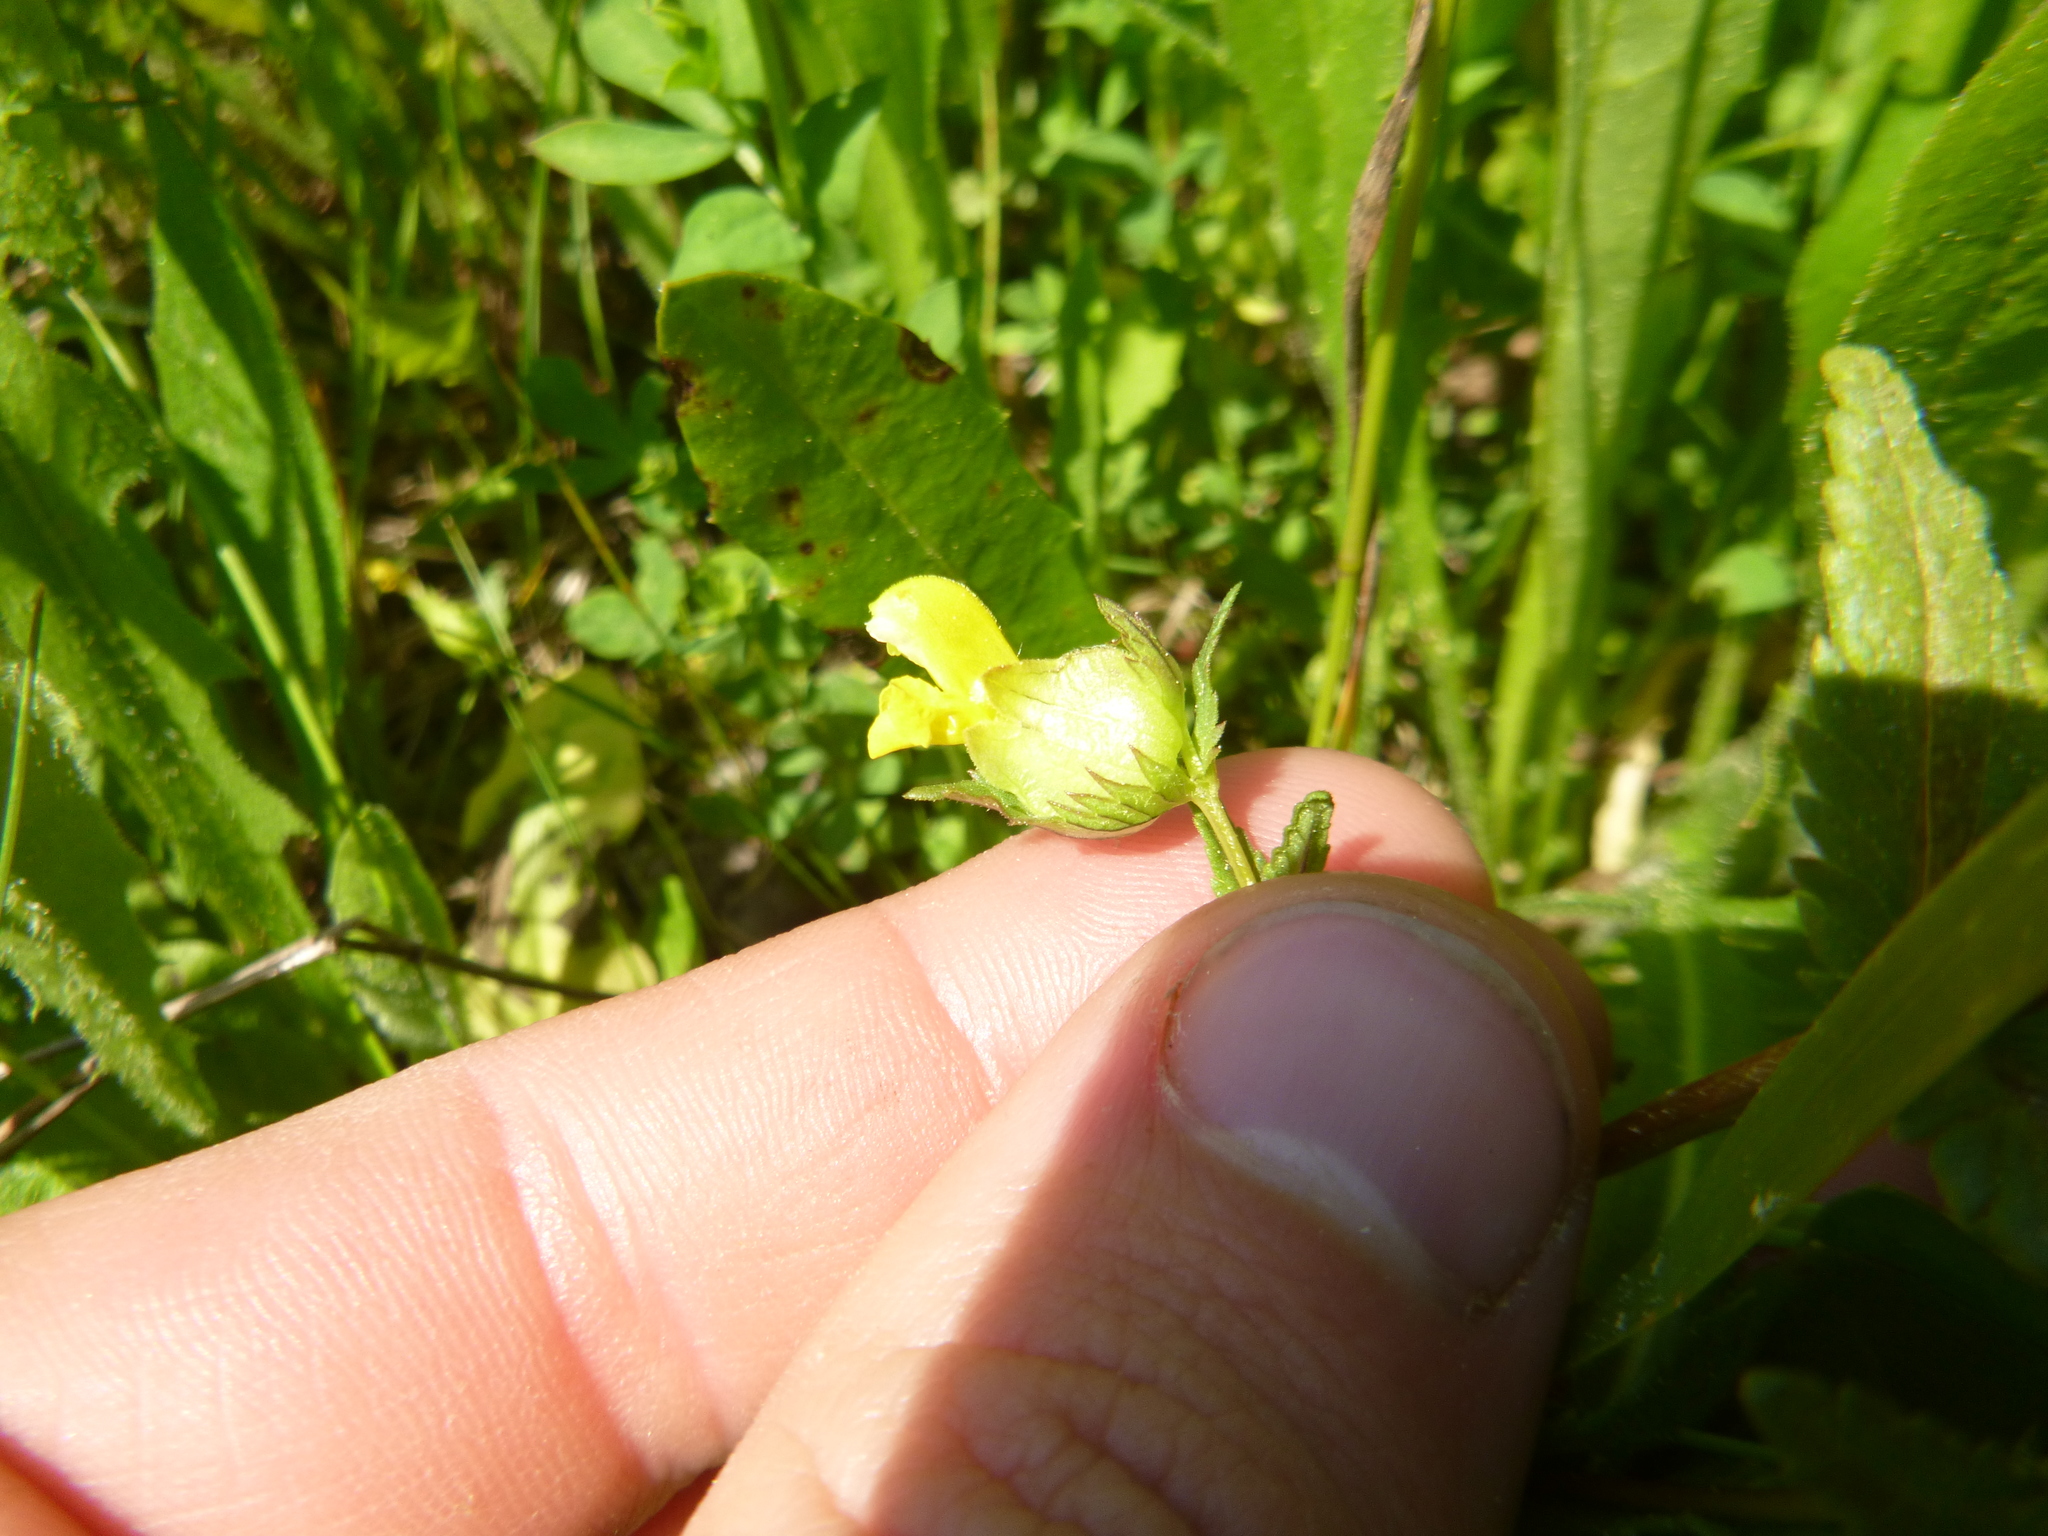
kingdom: Plantae
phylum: Tracheophyta
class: Magnoliopsida
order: Lamiales
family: Orobanchaceae
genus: Rhinanthus
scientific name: Rhinanthus minor
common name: Yellow-rattle
